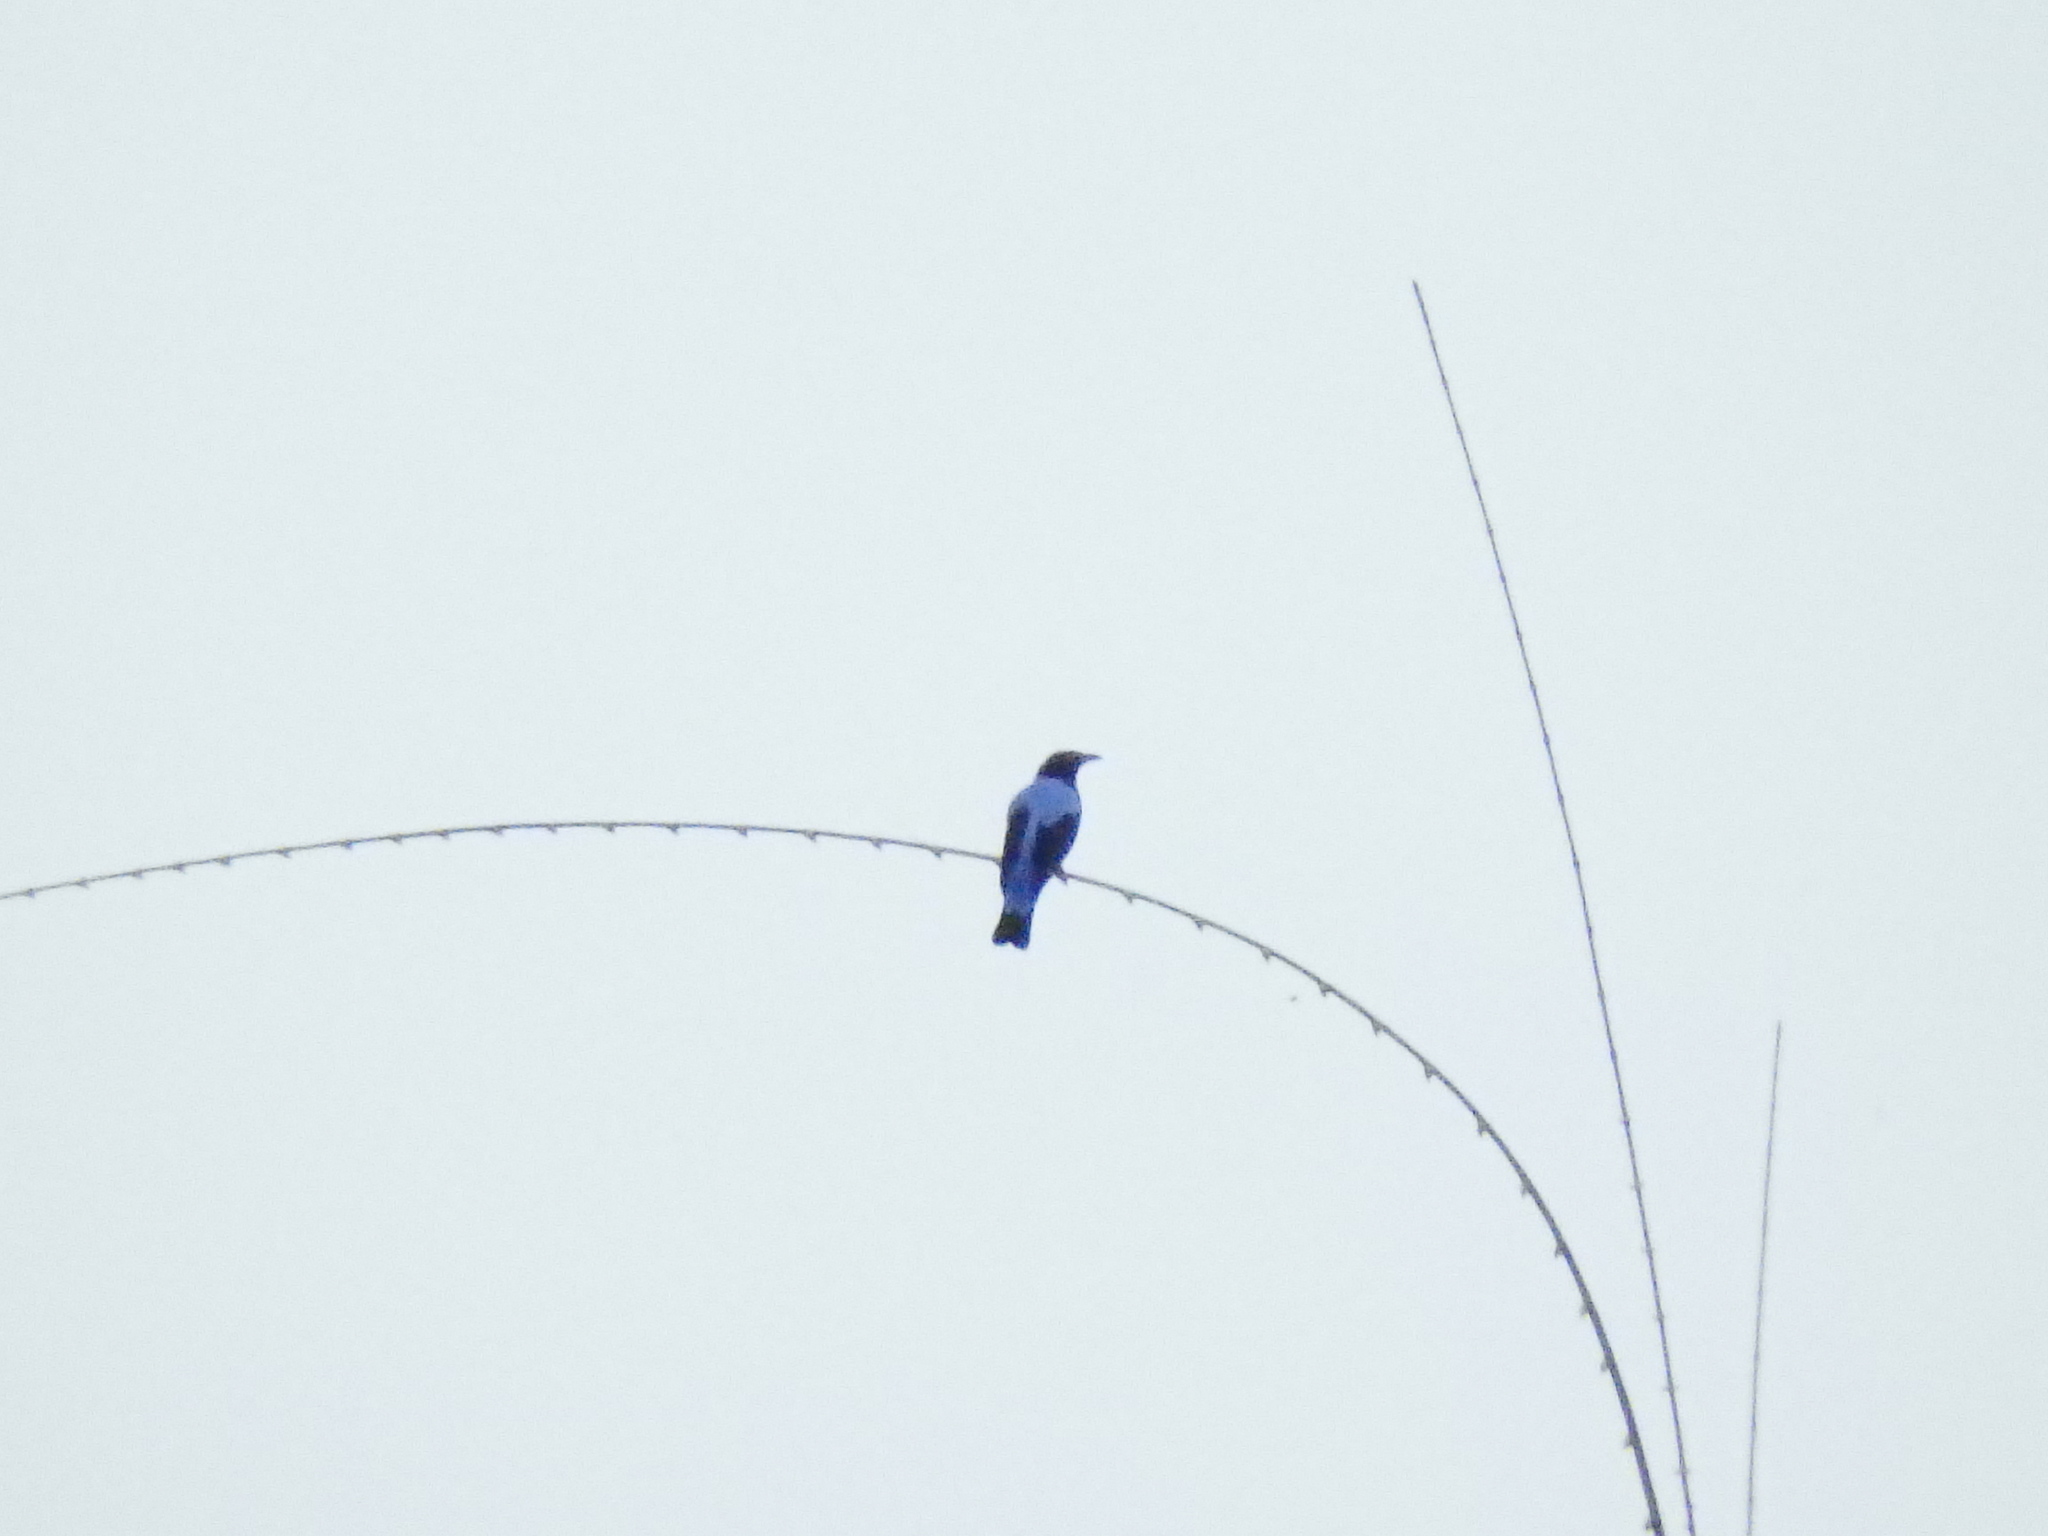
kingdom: Animalia
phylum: Chordata
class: Aves
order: Passeriformes
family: Irenidae
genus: Irena
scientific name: Irena puella
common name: Asian fairy-bluebird
